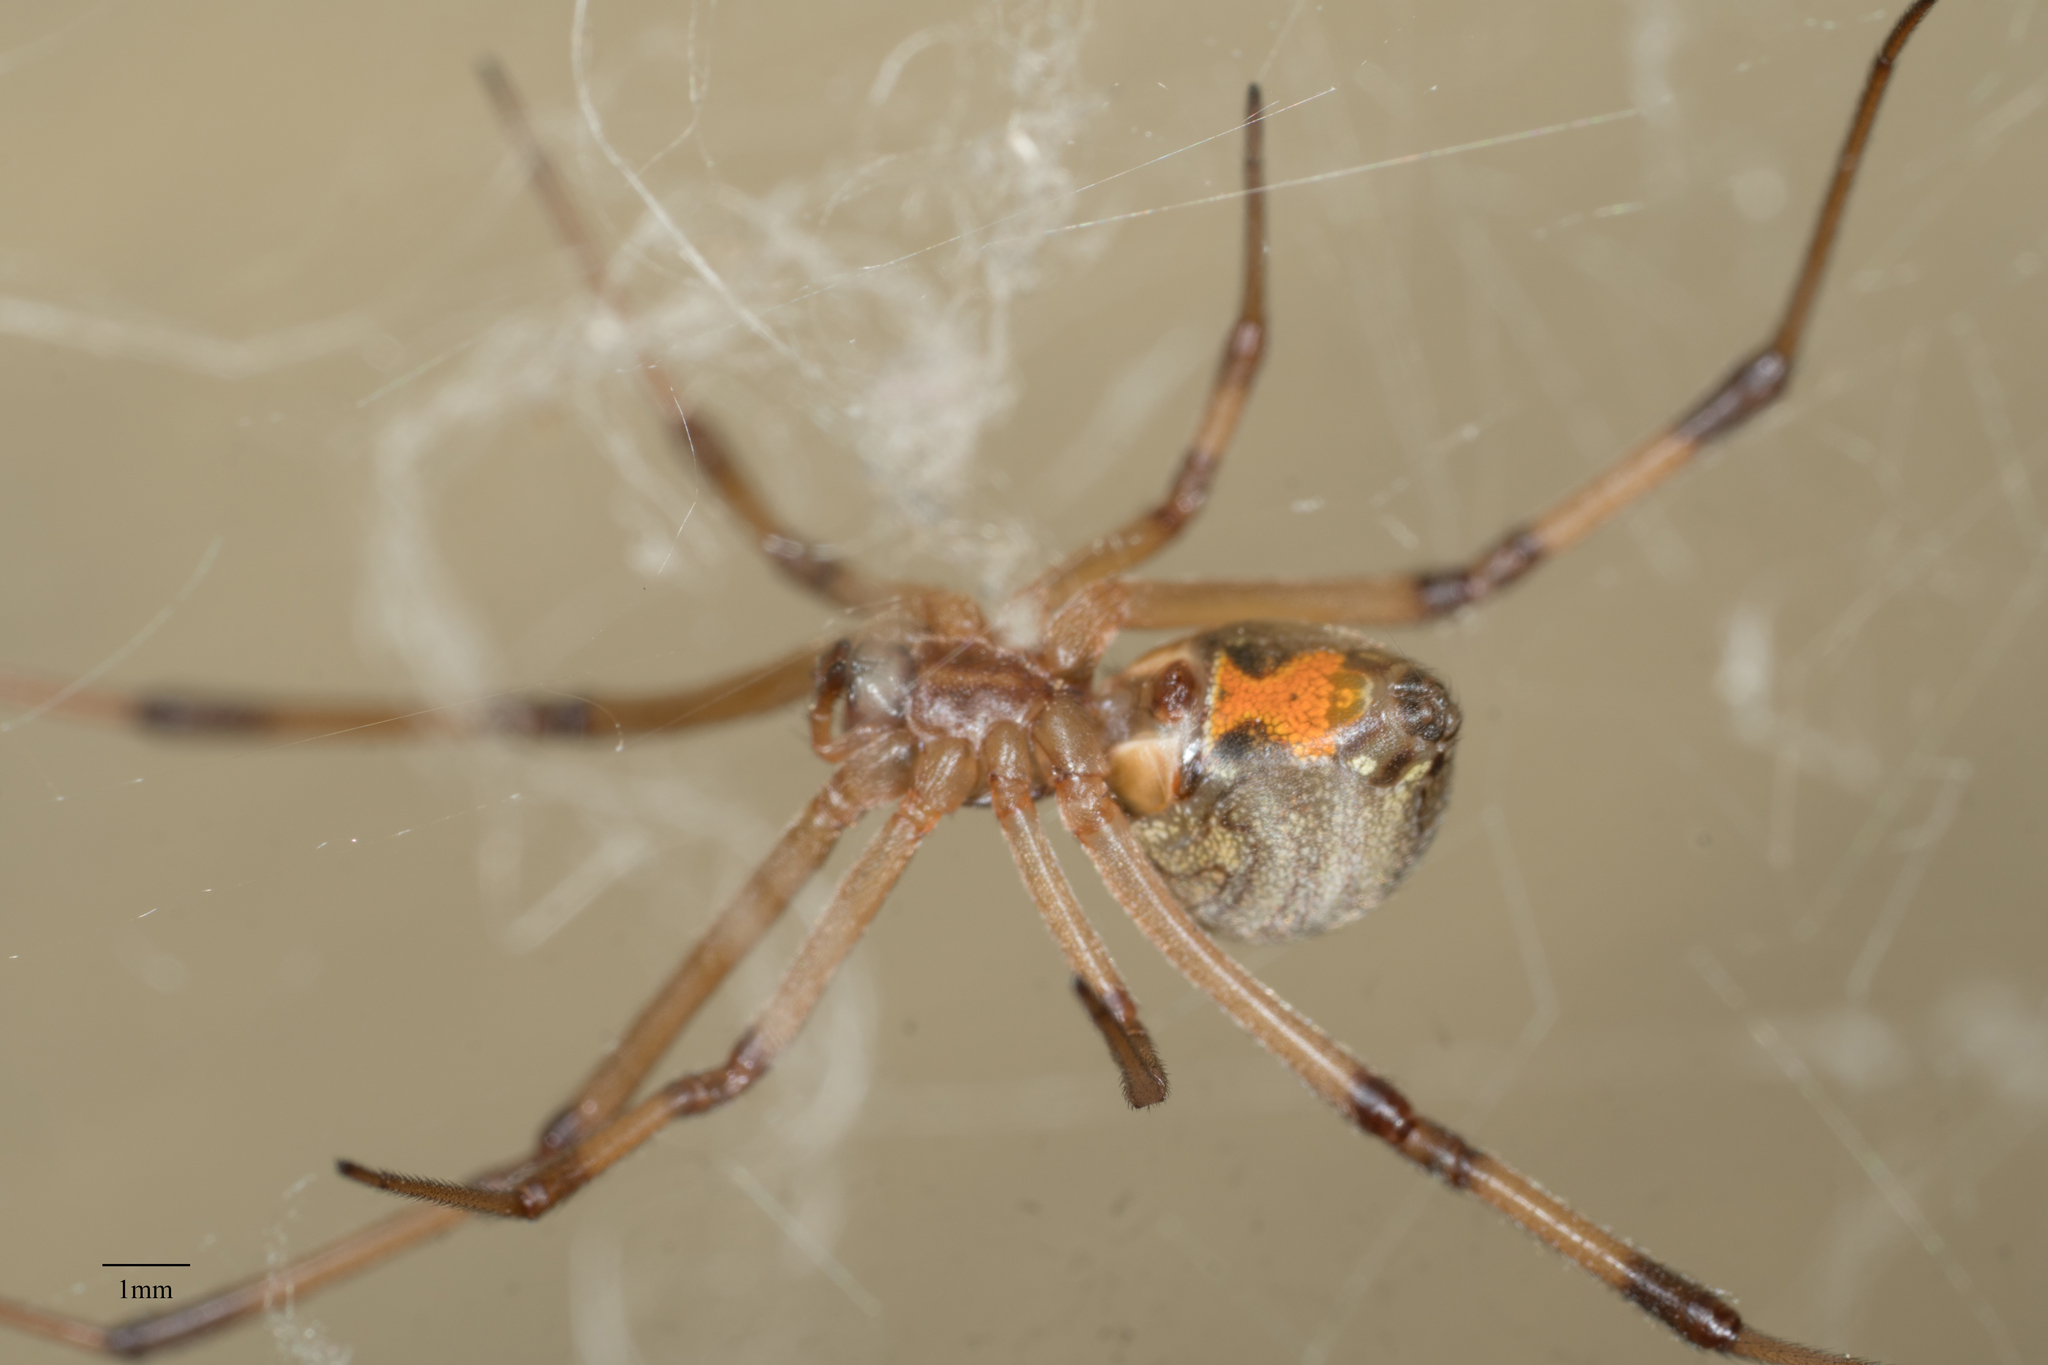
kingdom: Animalia
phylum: Arthropoda
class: Arachnida
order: Araneae
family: Theridiidae
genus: Latrodectus
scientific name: Latrodectus geometricus
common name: Brown widow spider
